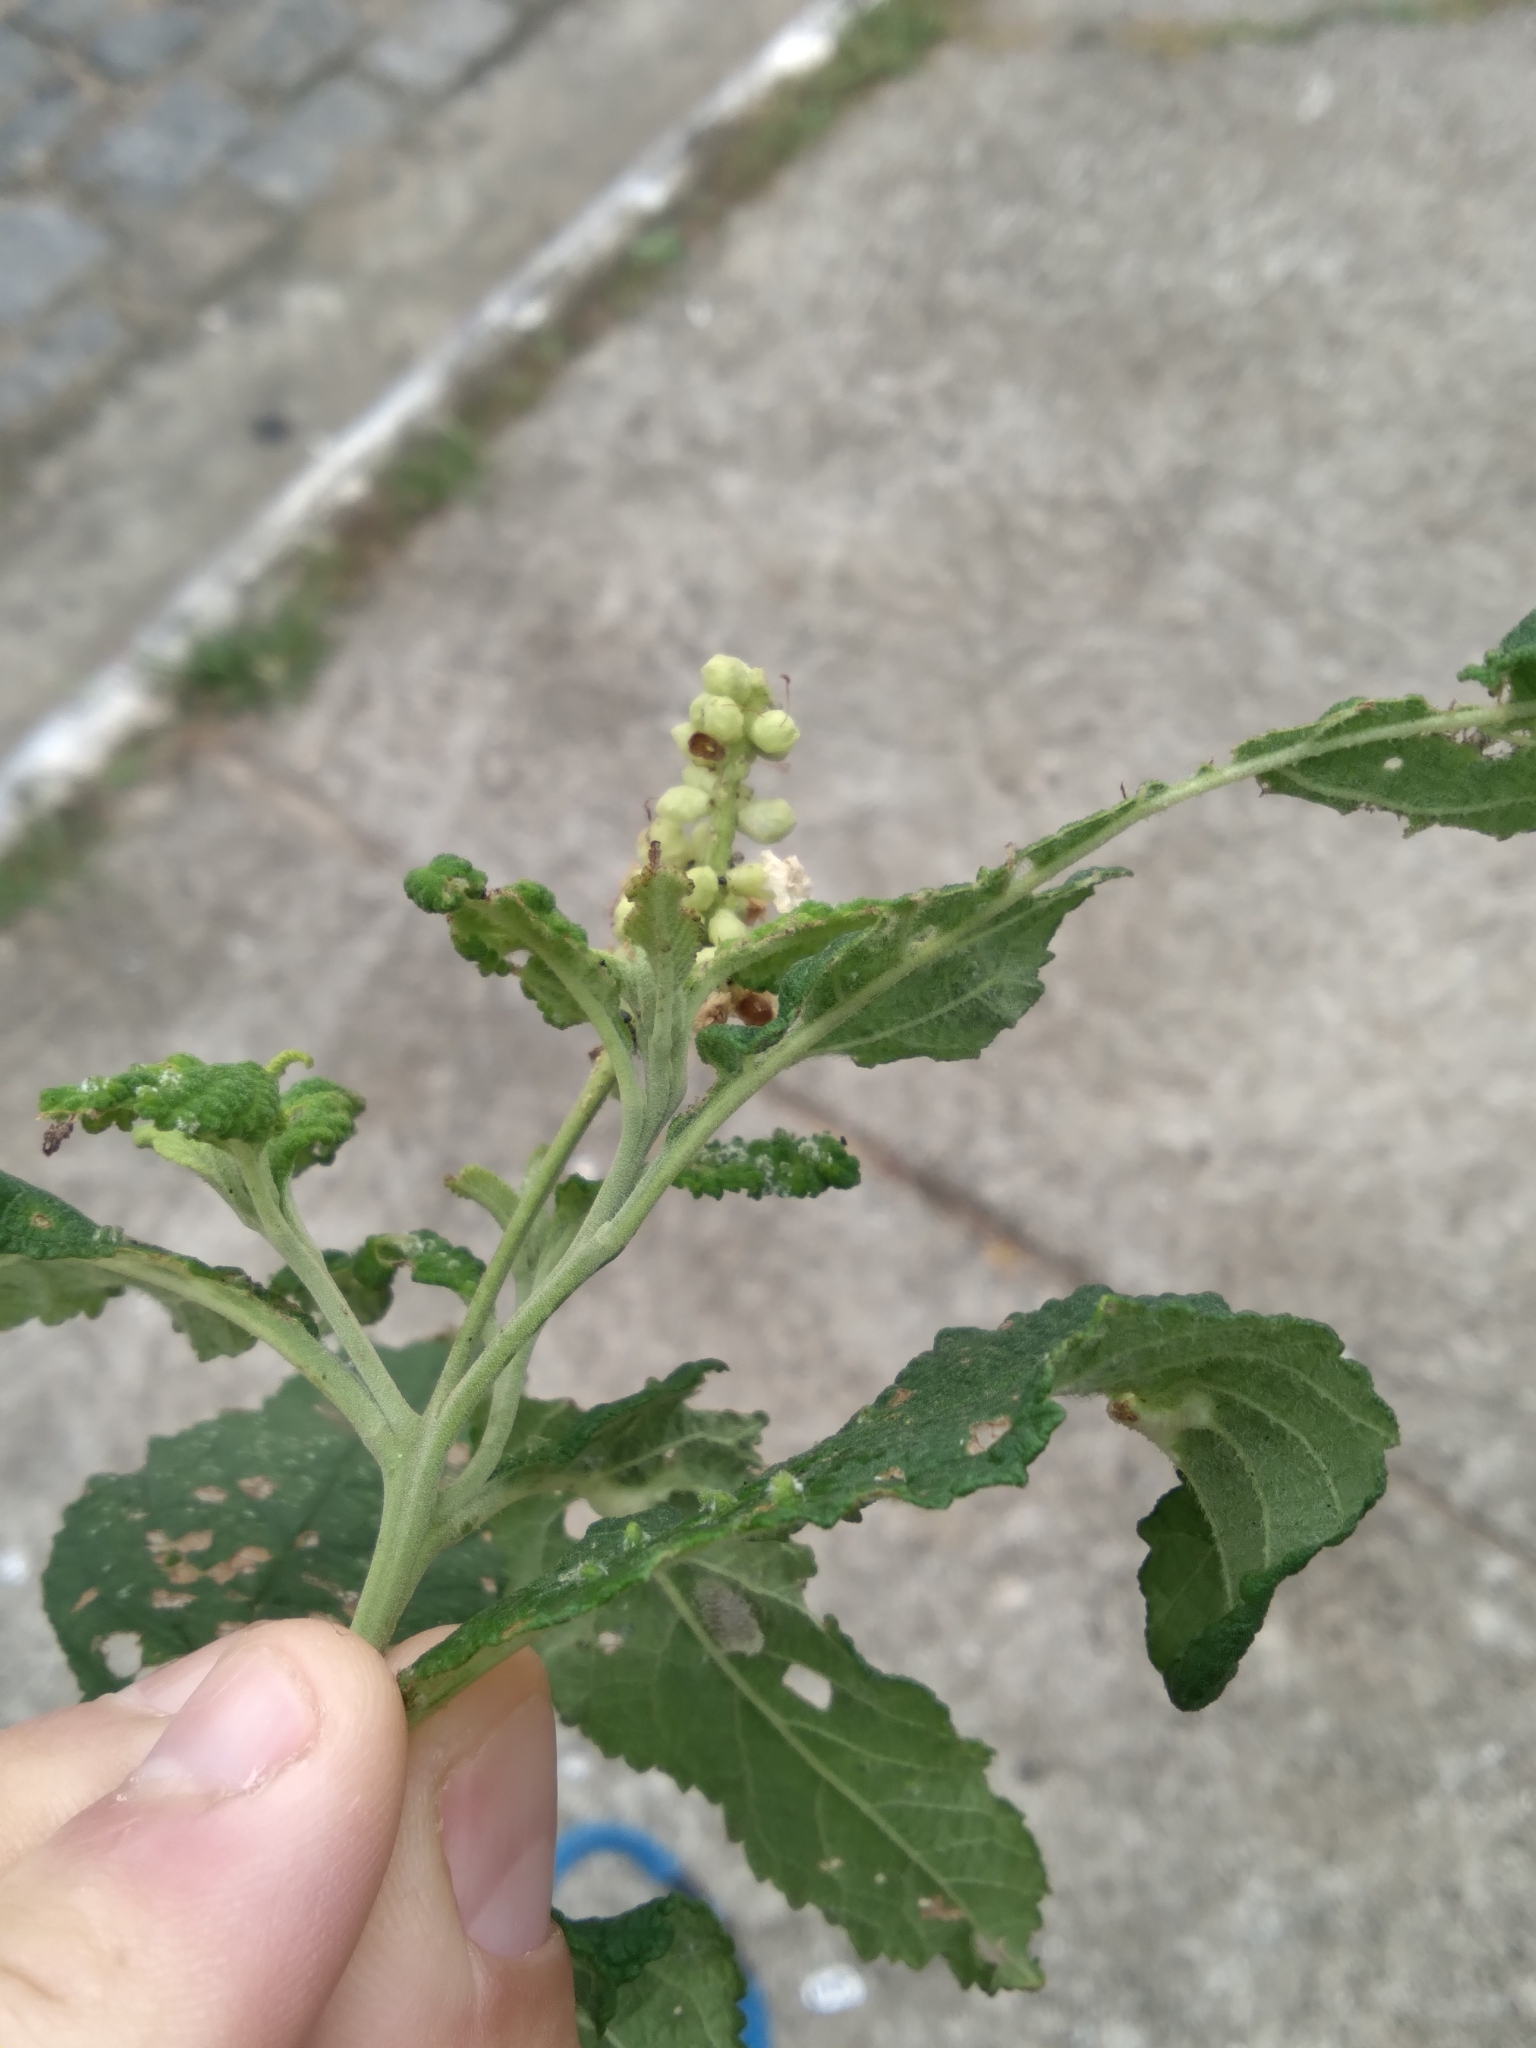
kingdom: Plantae
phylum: Tracheophyta
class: Magnoliopsida
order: Boraginales
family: Cordiaceae
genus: Varronia
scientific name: Varronia curassavica
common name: Black sage
